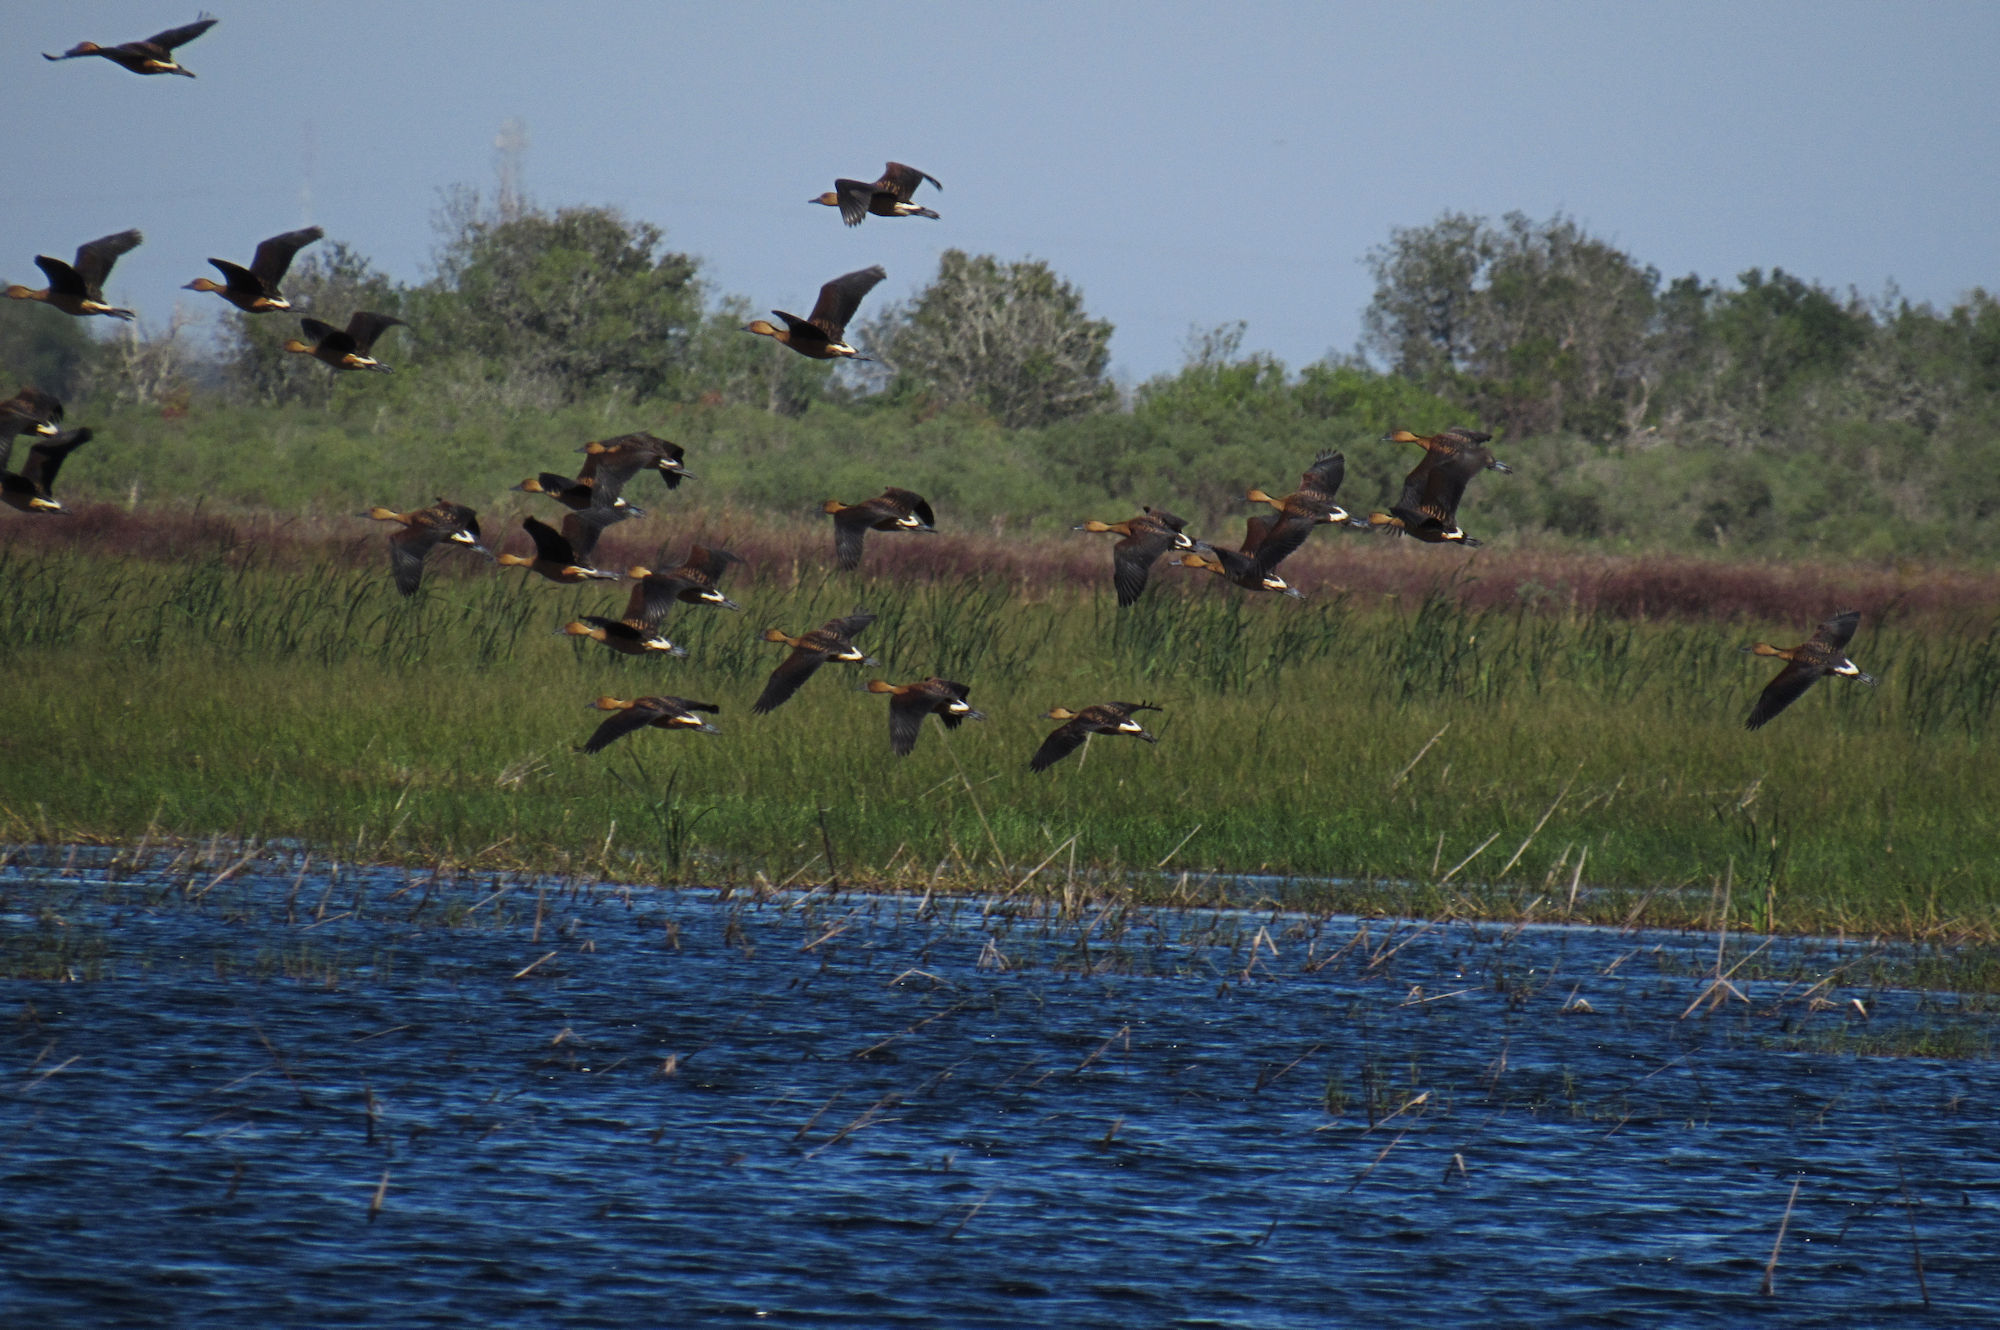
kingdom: Animalia
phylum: Chordata
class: Aves
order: Anseriformes
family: Anatidae
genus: Dendrocygna
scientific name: Dendrocygna bicolor
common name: Fulvous whistling duck
